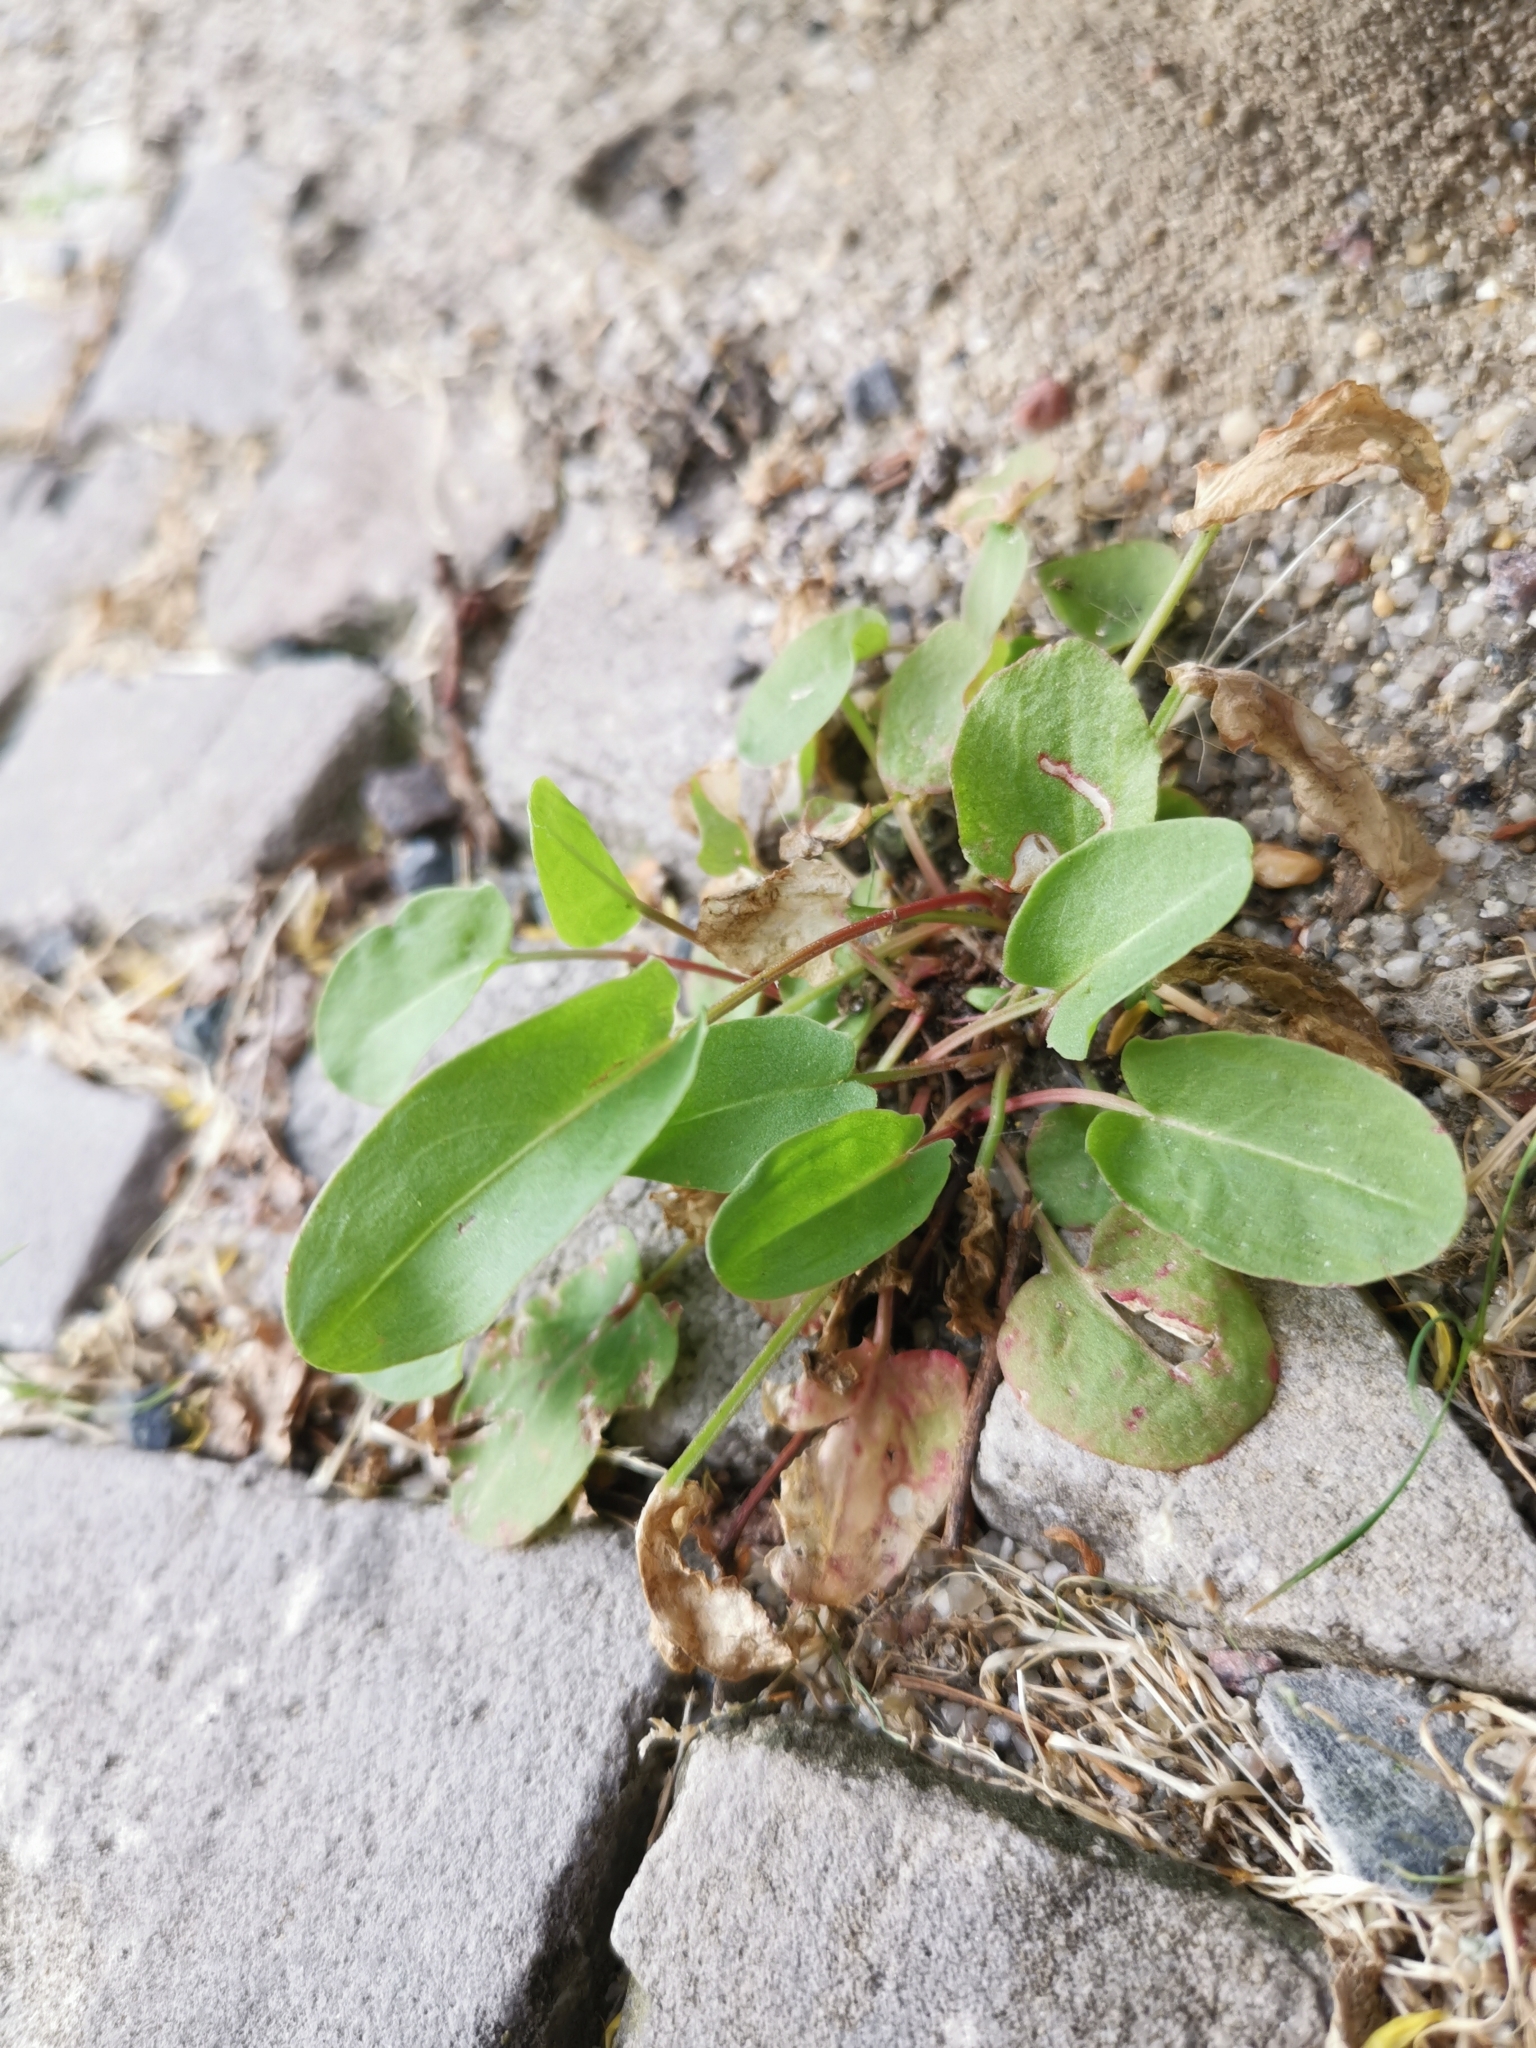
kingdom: Plantae
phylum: Tracheophyta
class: Magnoliopsida
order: Caryophyllales
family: Polygonaceae
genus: Rumex
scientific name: Rumex acetosa
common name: Garden sorrel
